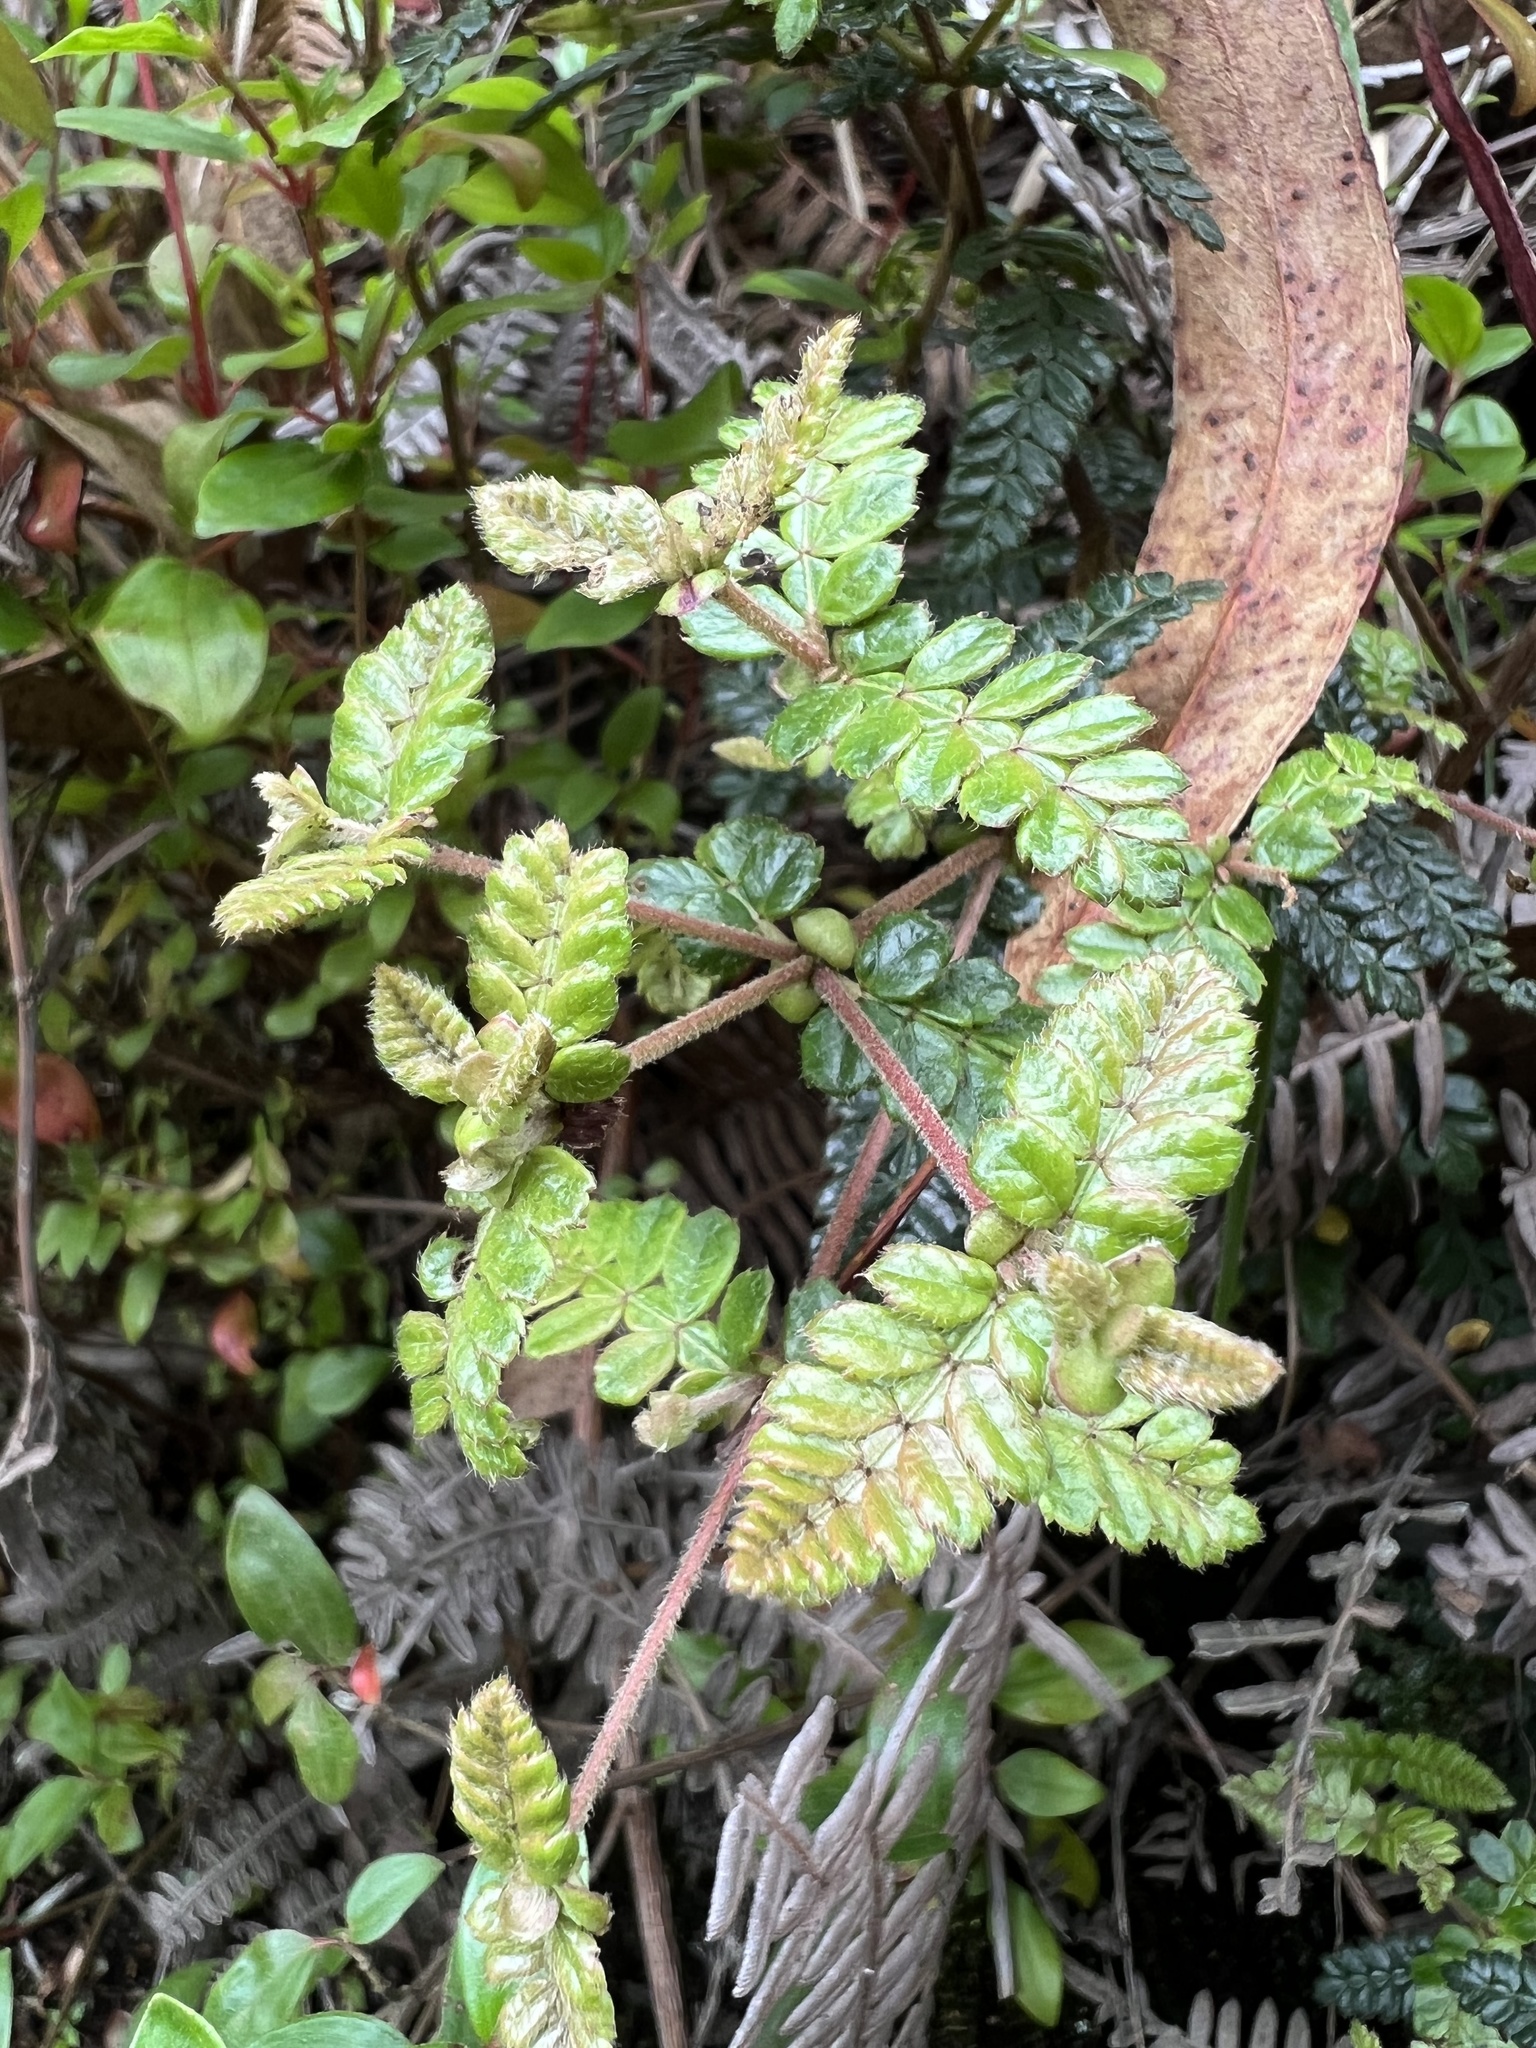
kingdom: Plantae
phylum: Tracheophyta
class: Magnoliopsida
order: Oxalidales
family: Cunoniaceae
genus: Weinmannia
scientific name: Weinmannia tomentosa
